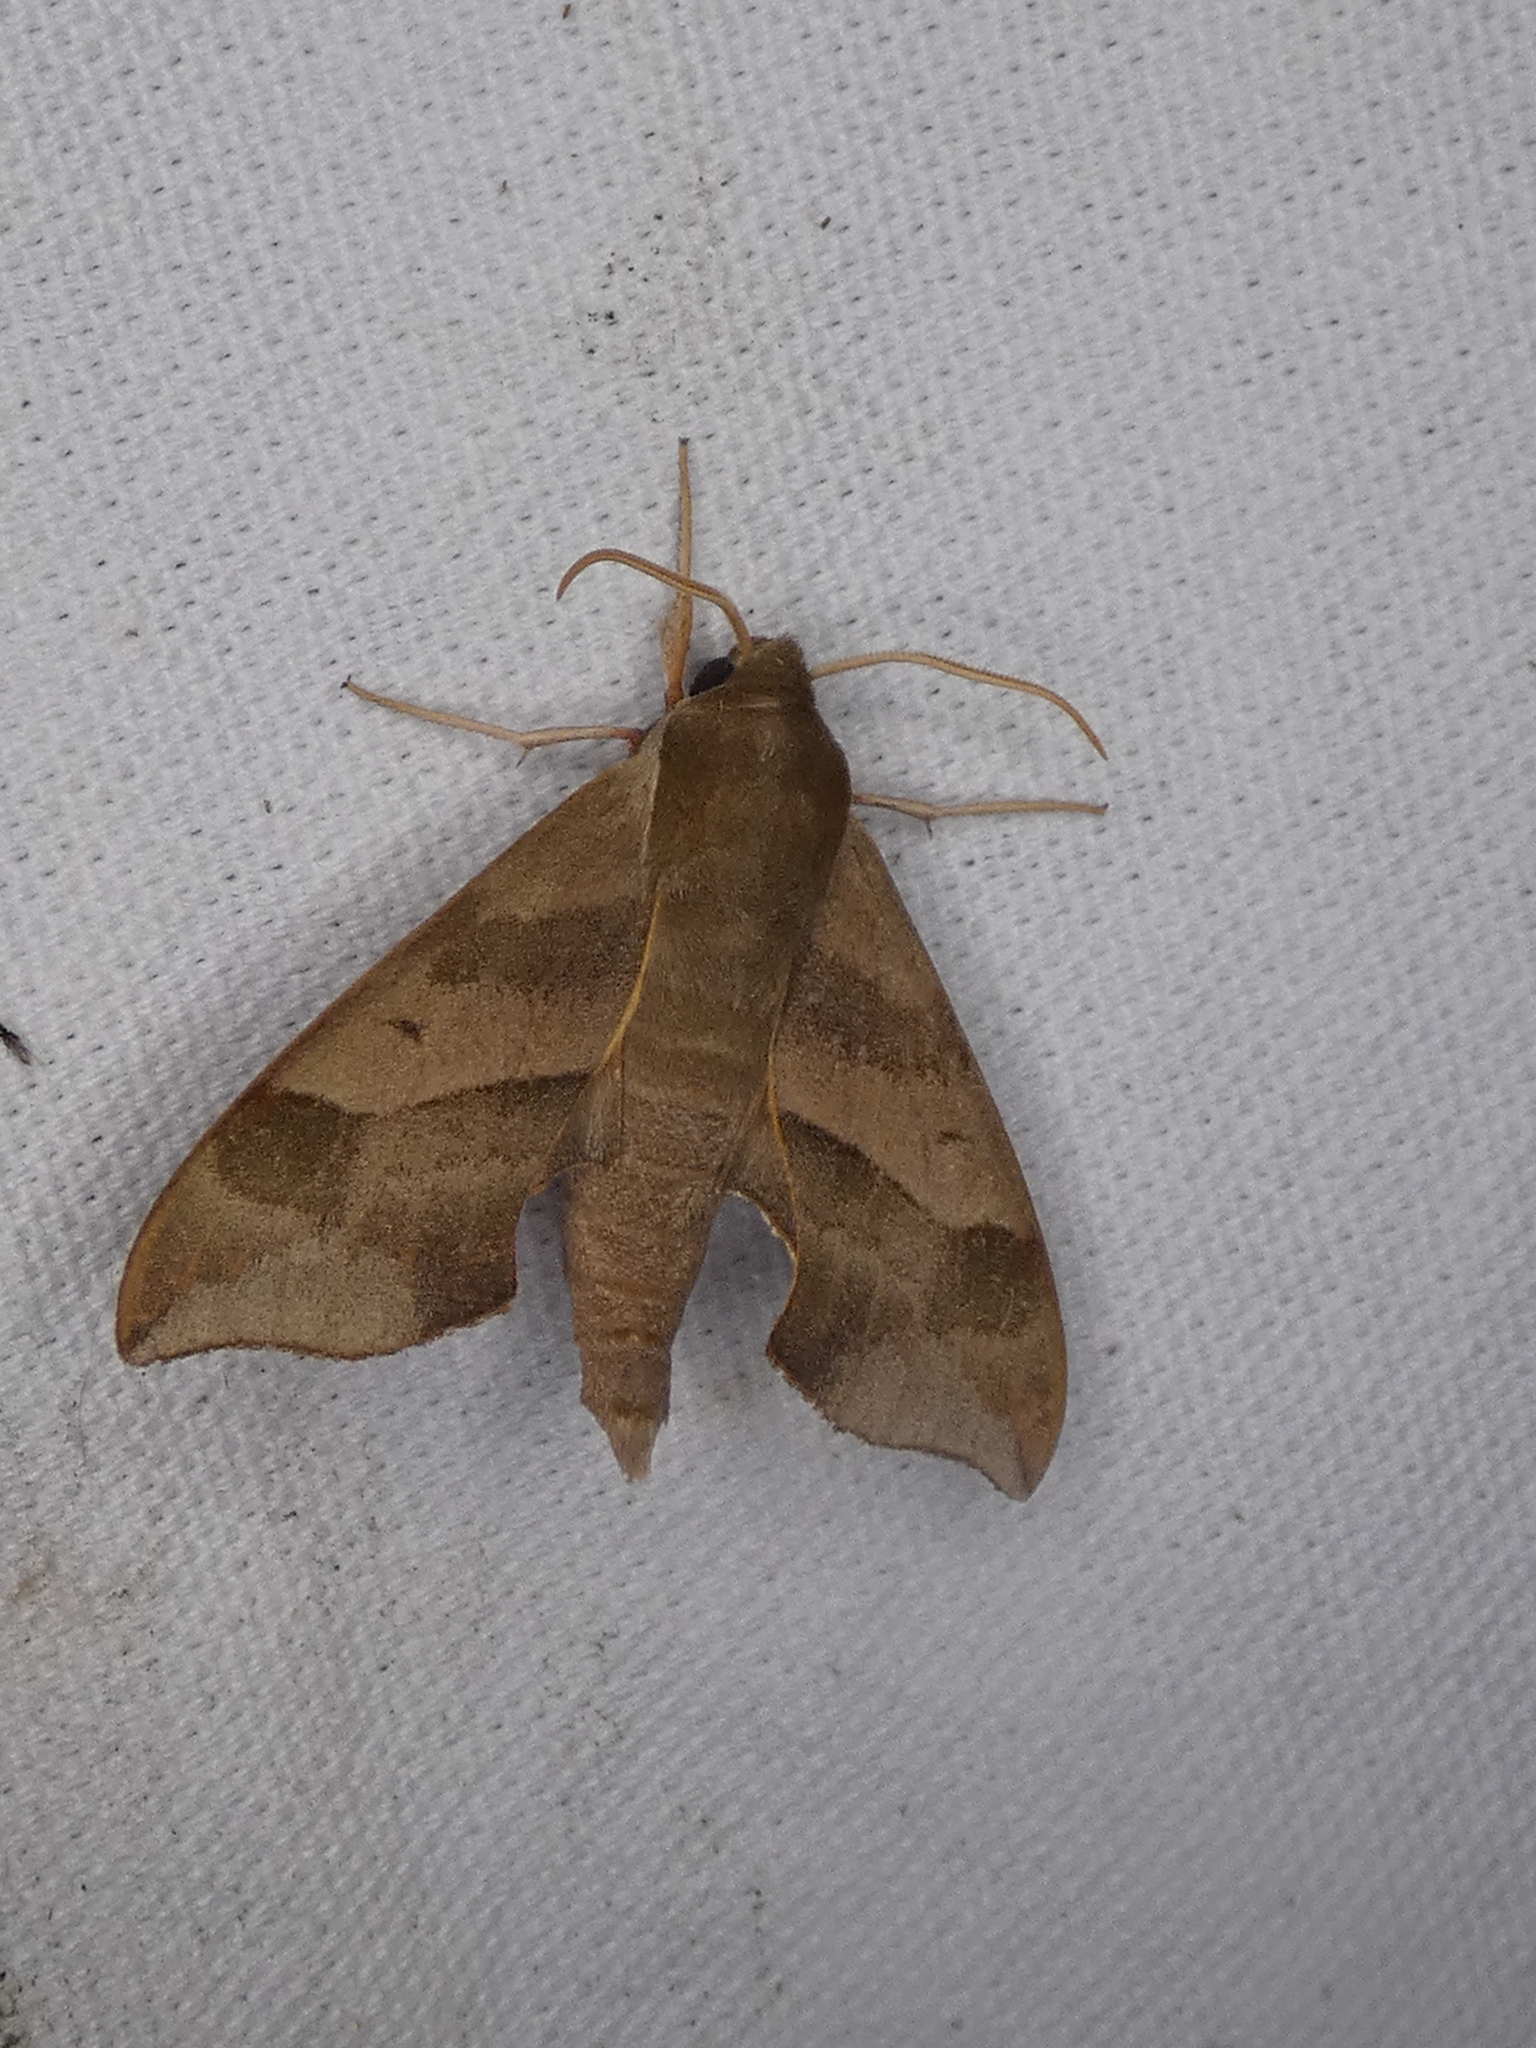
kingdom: Animalia
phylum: Arthropoda
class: Insecta
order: Lepidoptera
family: Sphingidae
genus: Darapsa
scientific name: Darapsa myron
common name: Hog sphinx
